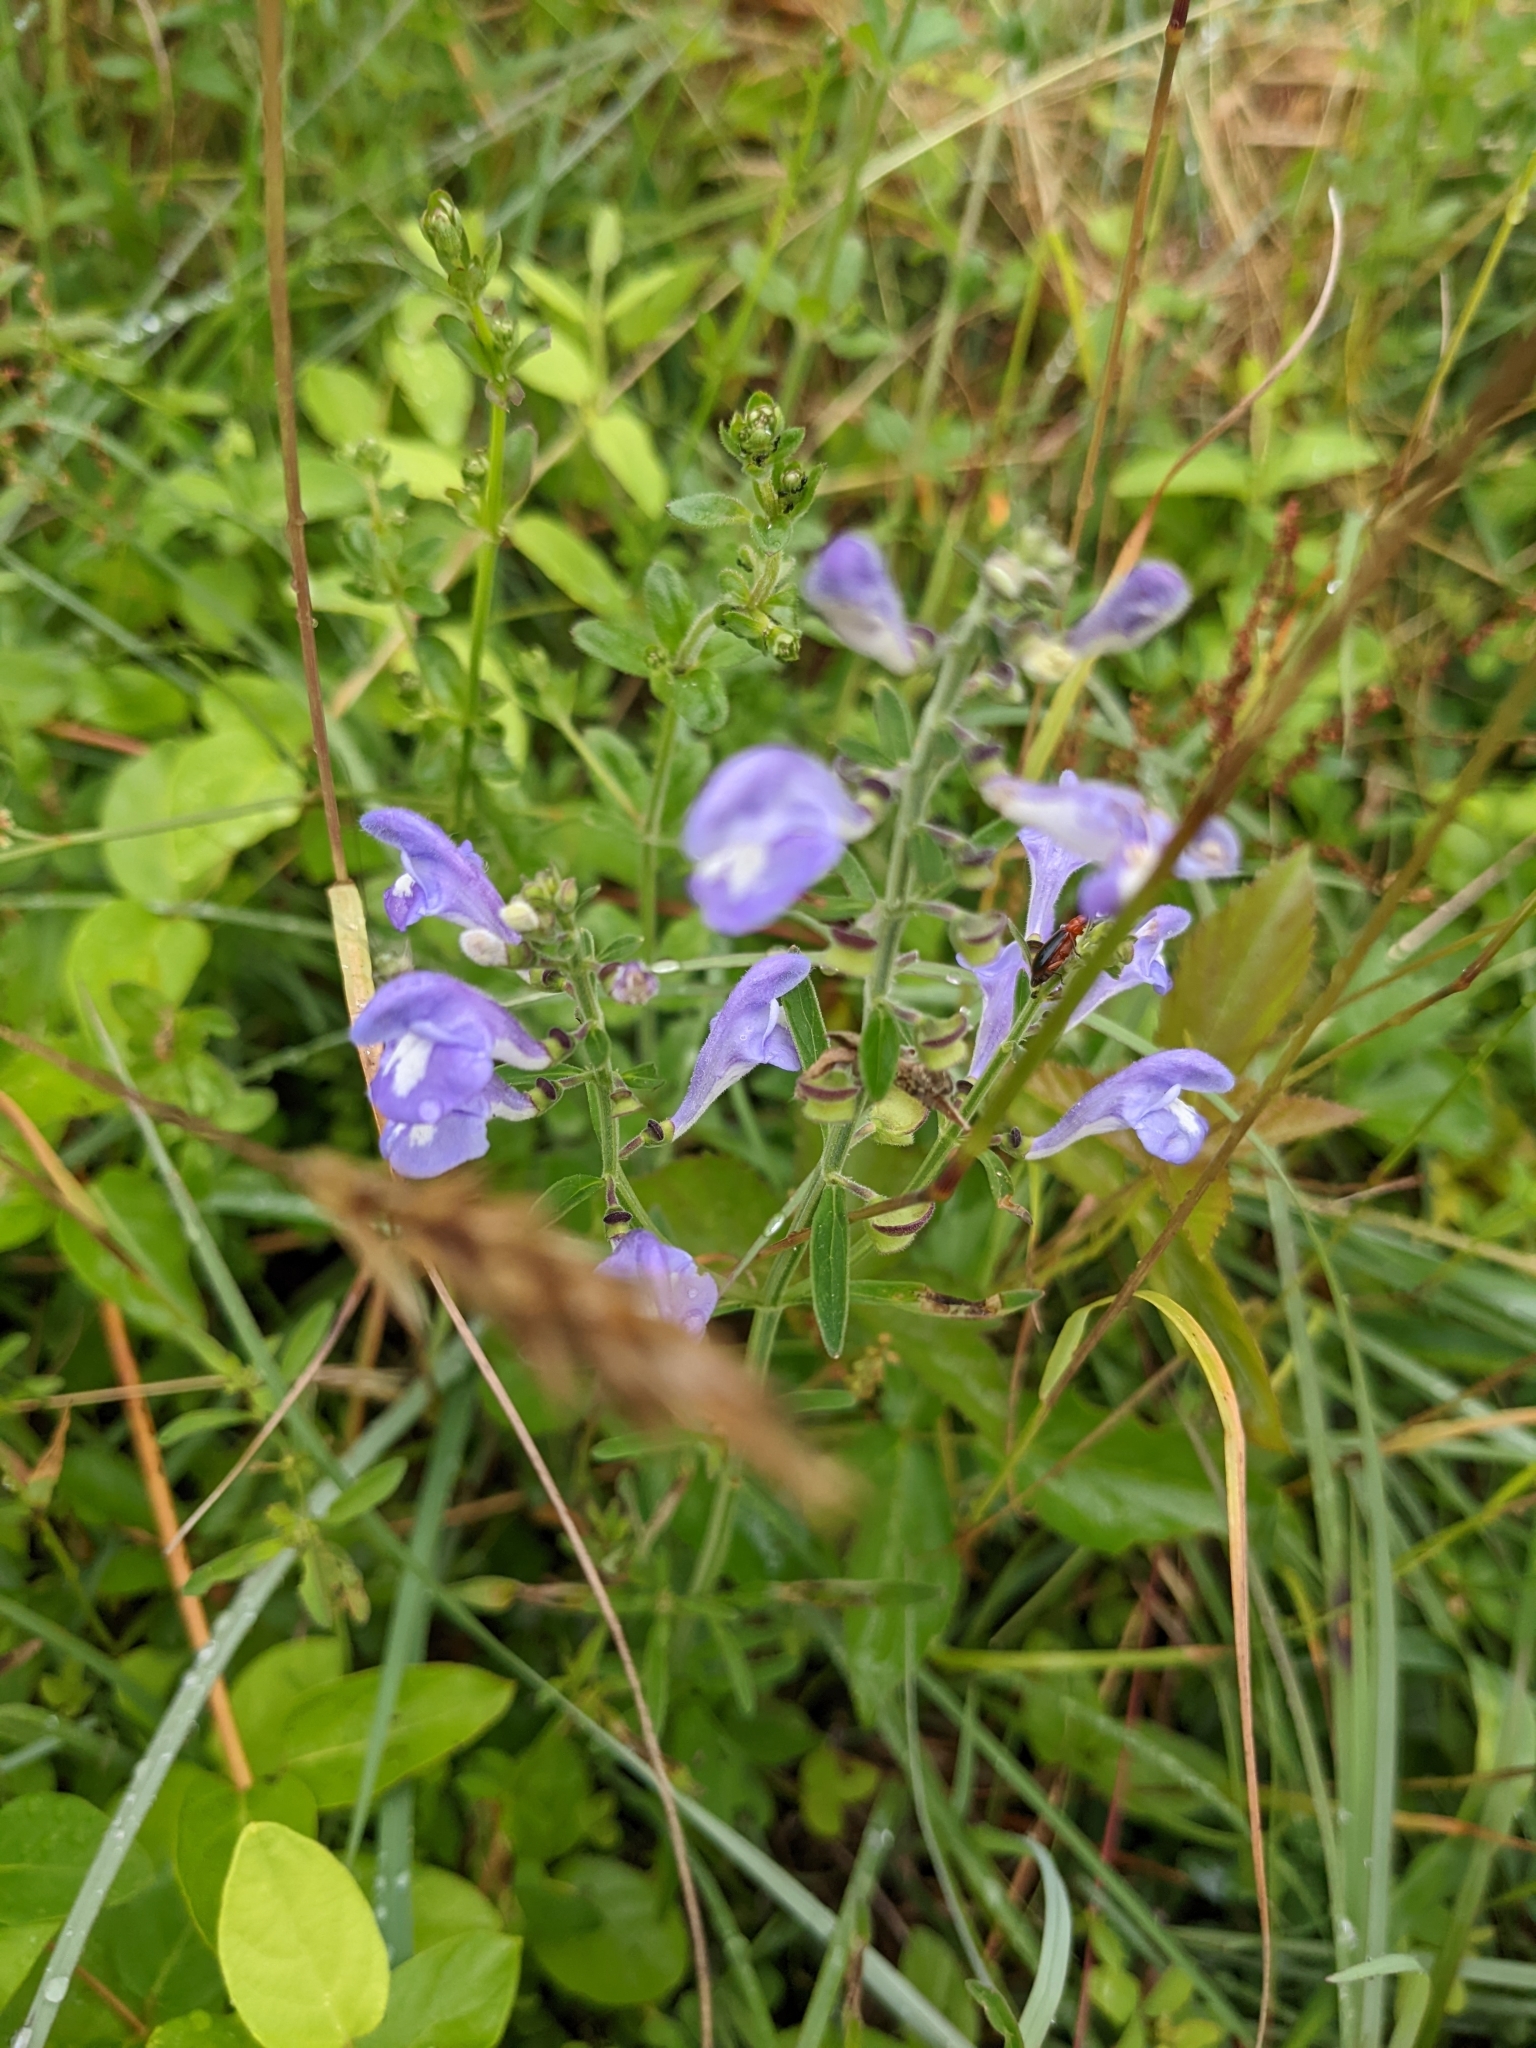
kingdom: Plantae
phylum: Tracheophyta
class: Magnoliopsida
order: Lamiales
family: Lamiaceae
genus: Scutellaria
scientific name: Scutellaria integrifolia
